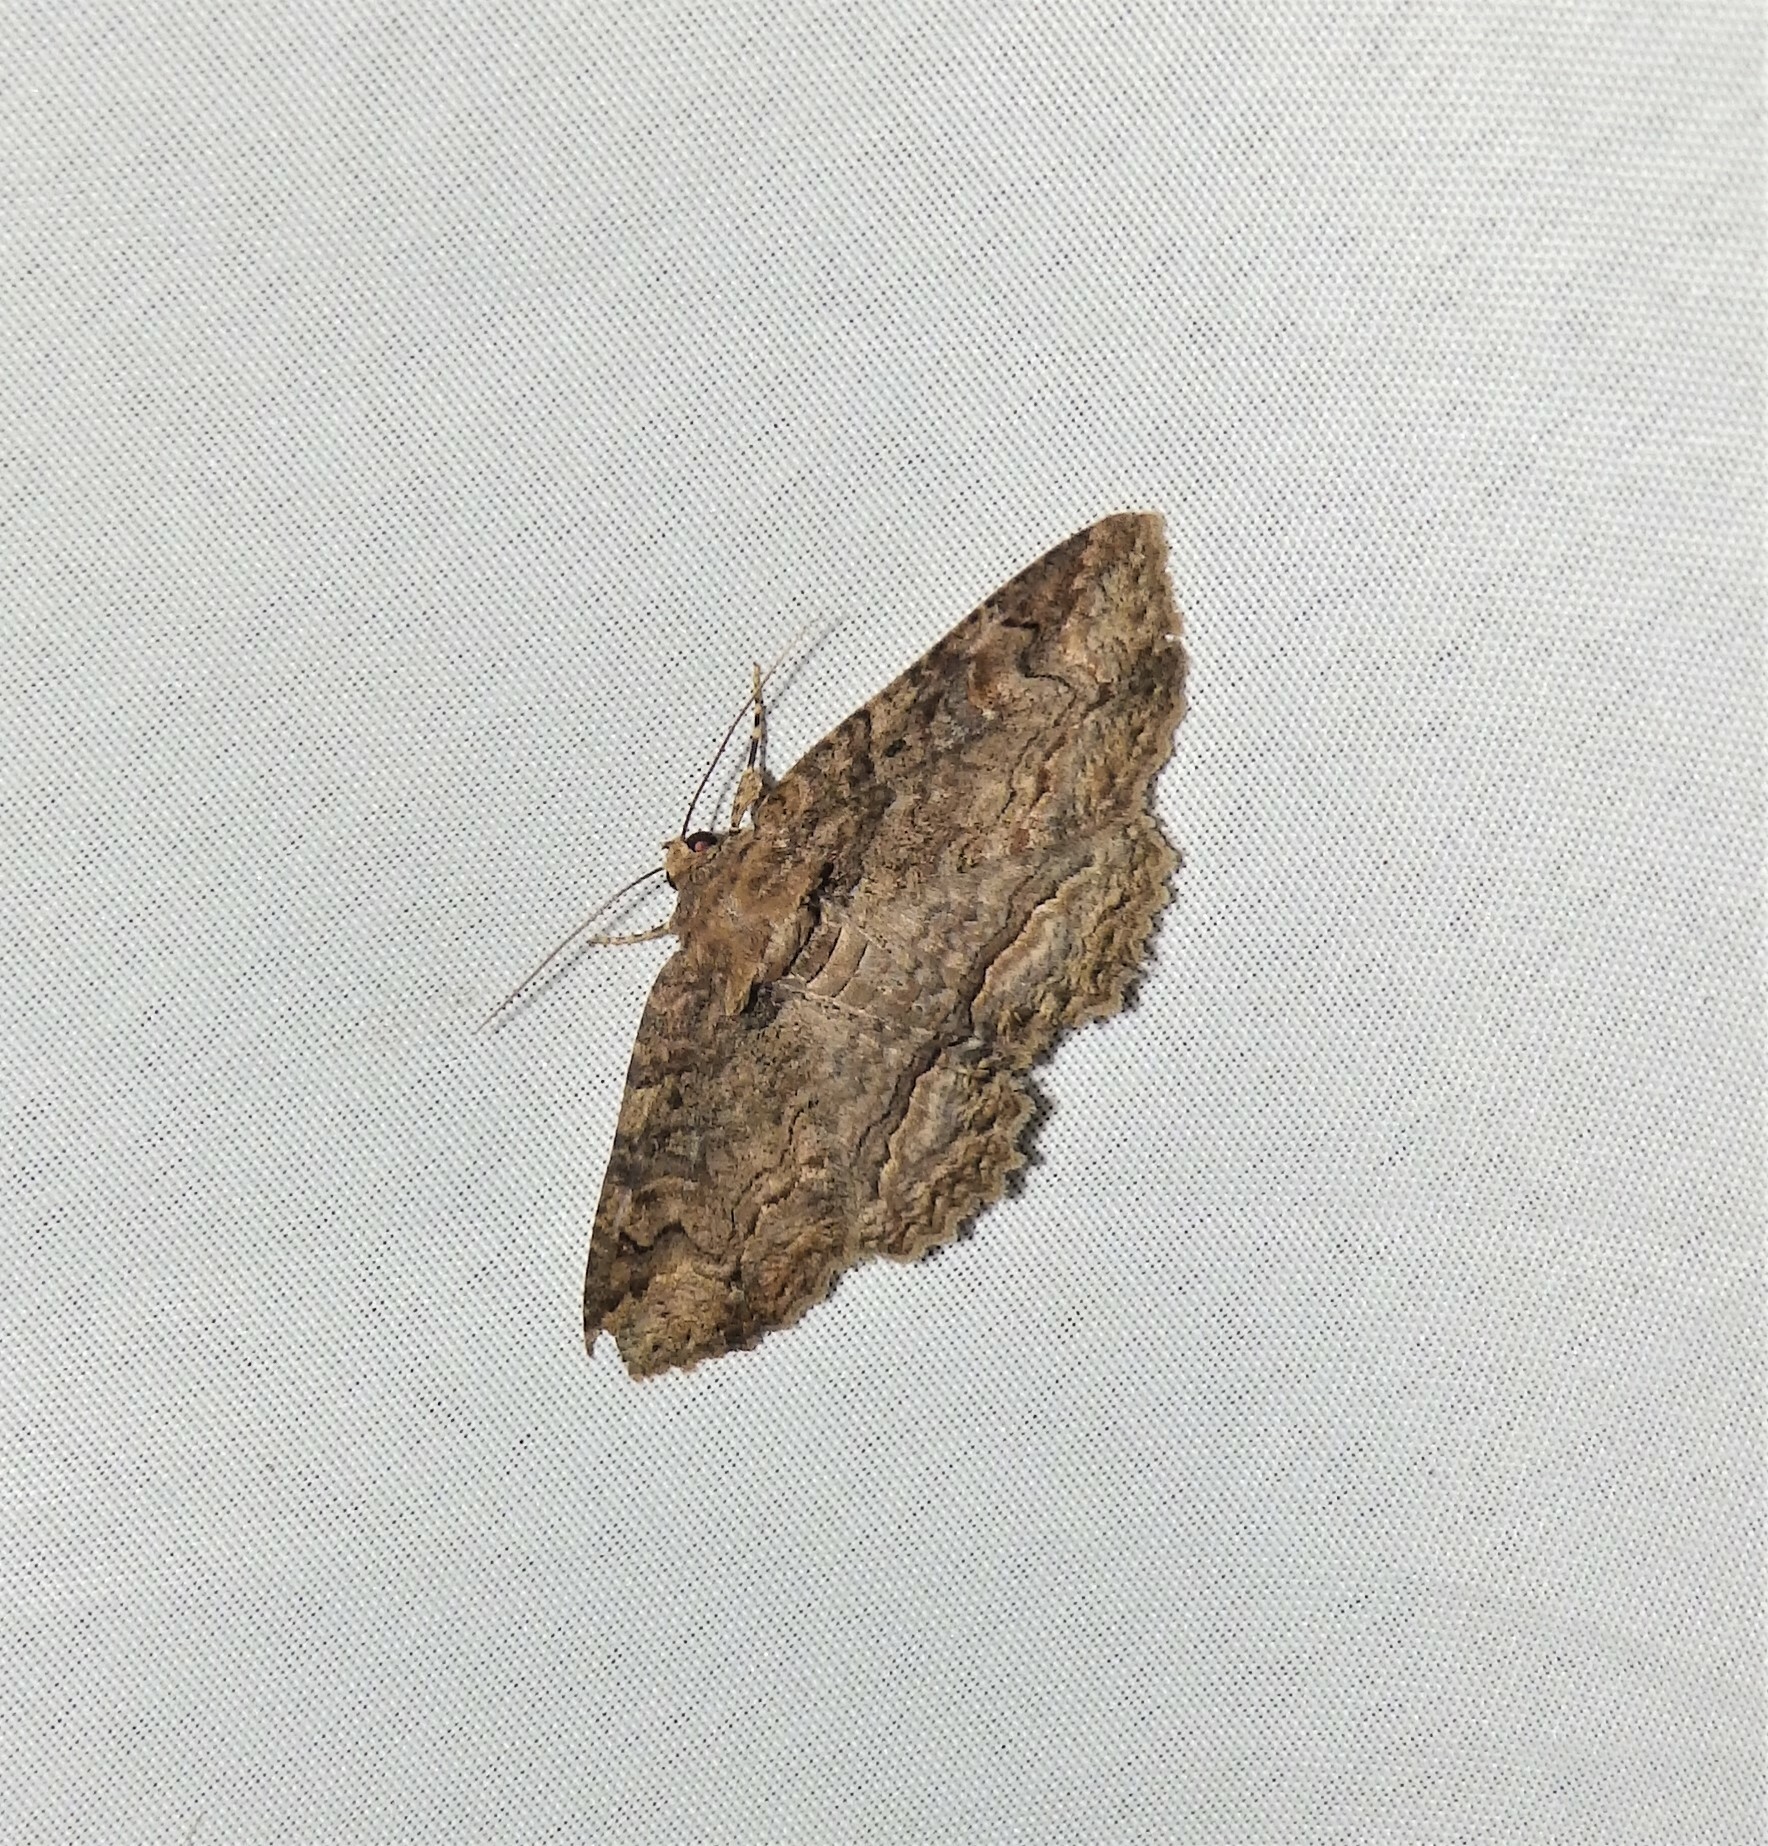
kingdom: Animalia
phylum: Arthropoda
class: Insecta
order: Lepidoptera
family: Erebidae
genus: Zale
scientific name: Zale galbanata
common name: Maple zale
